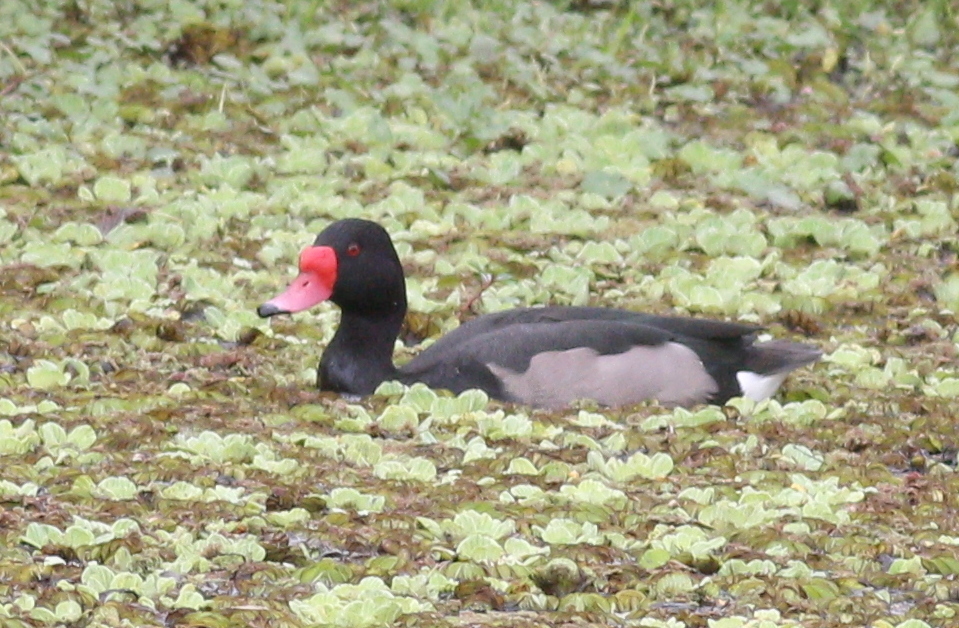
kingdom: Animalia
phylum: Chordata
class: Aves
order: Anseriformes
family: Anatidae
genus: Netta
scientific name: Netta peposaca
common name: Rosy-billed pochard
